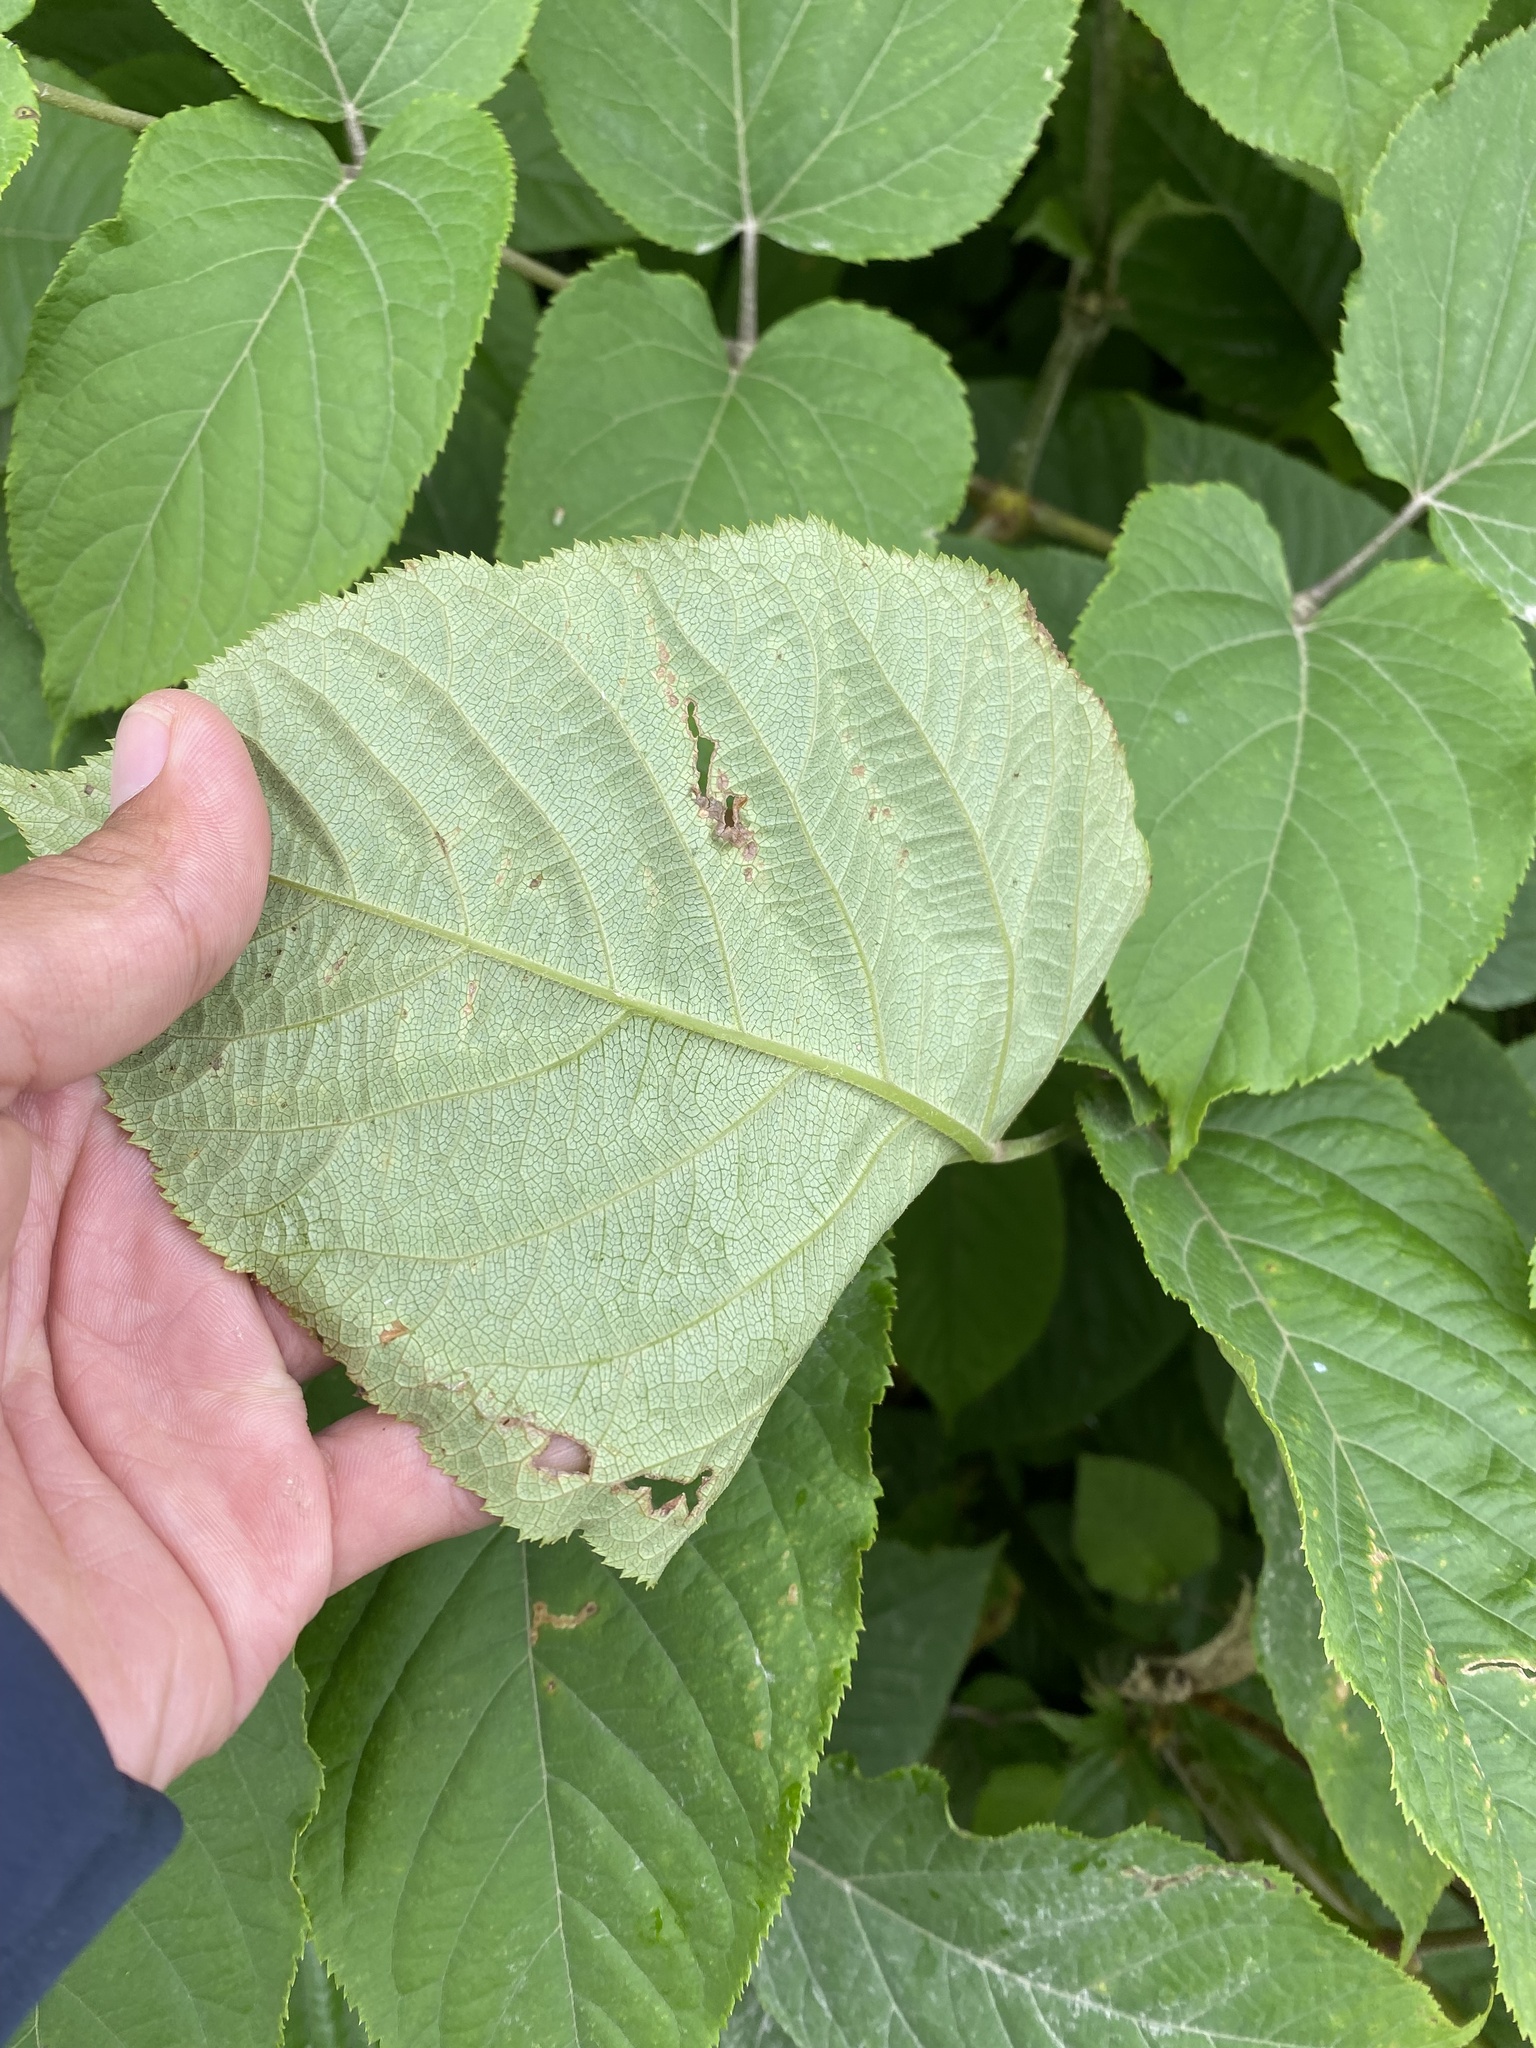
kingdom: Plantae
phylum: Tracheophyta
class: Magnoliopsida
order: Apiales
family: Araliaceae
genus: Aralia
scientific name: Aralia cordata
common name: Udo
